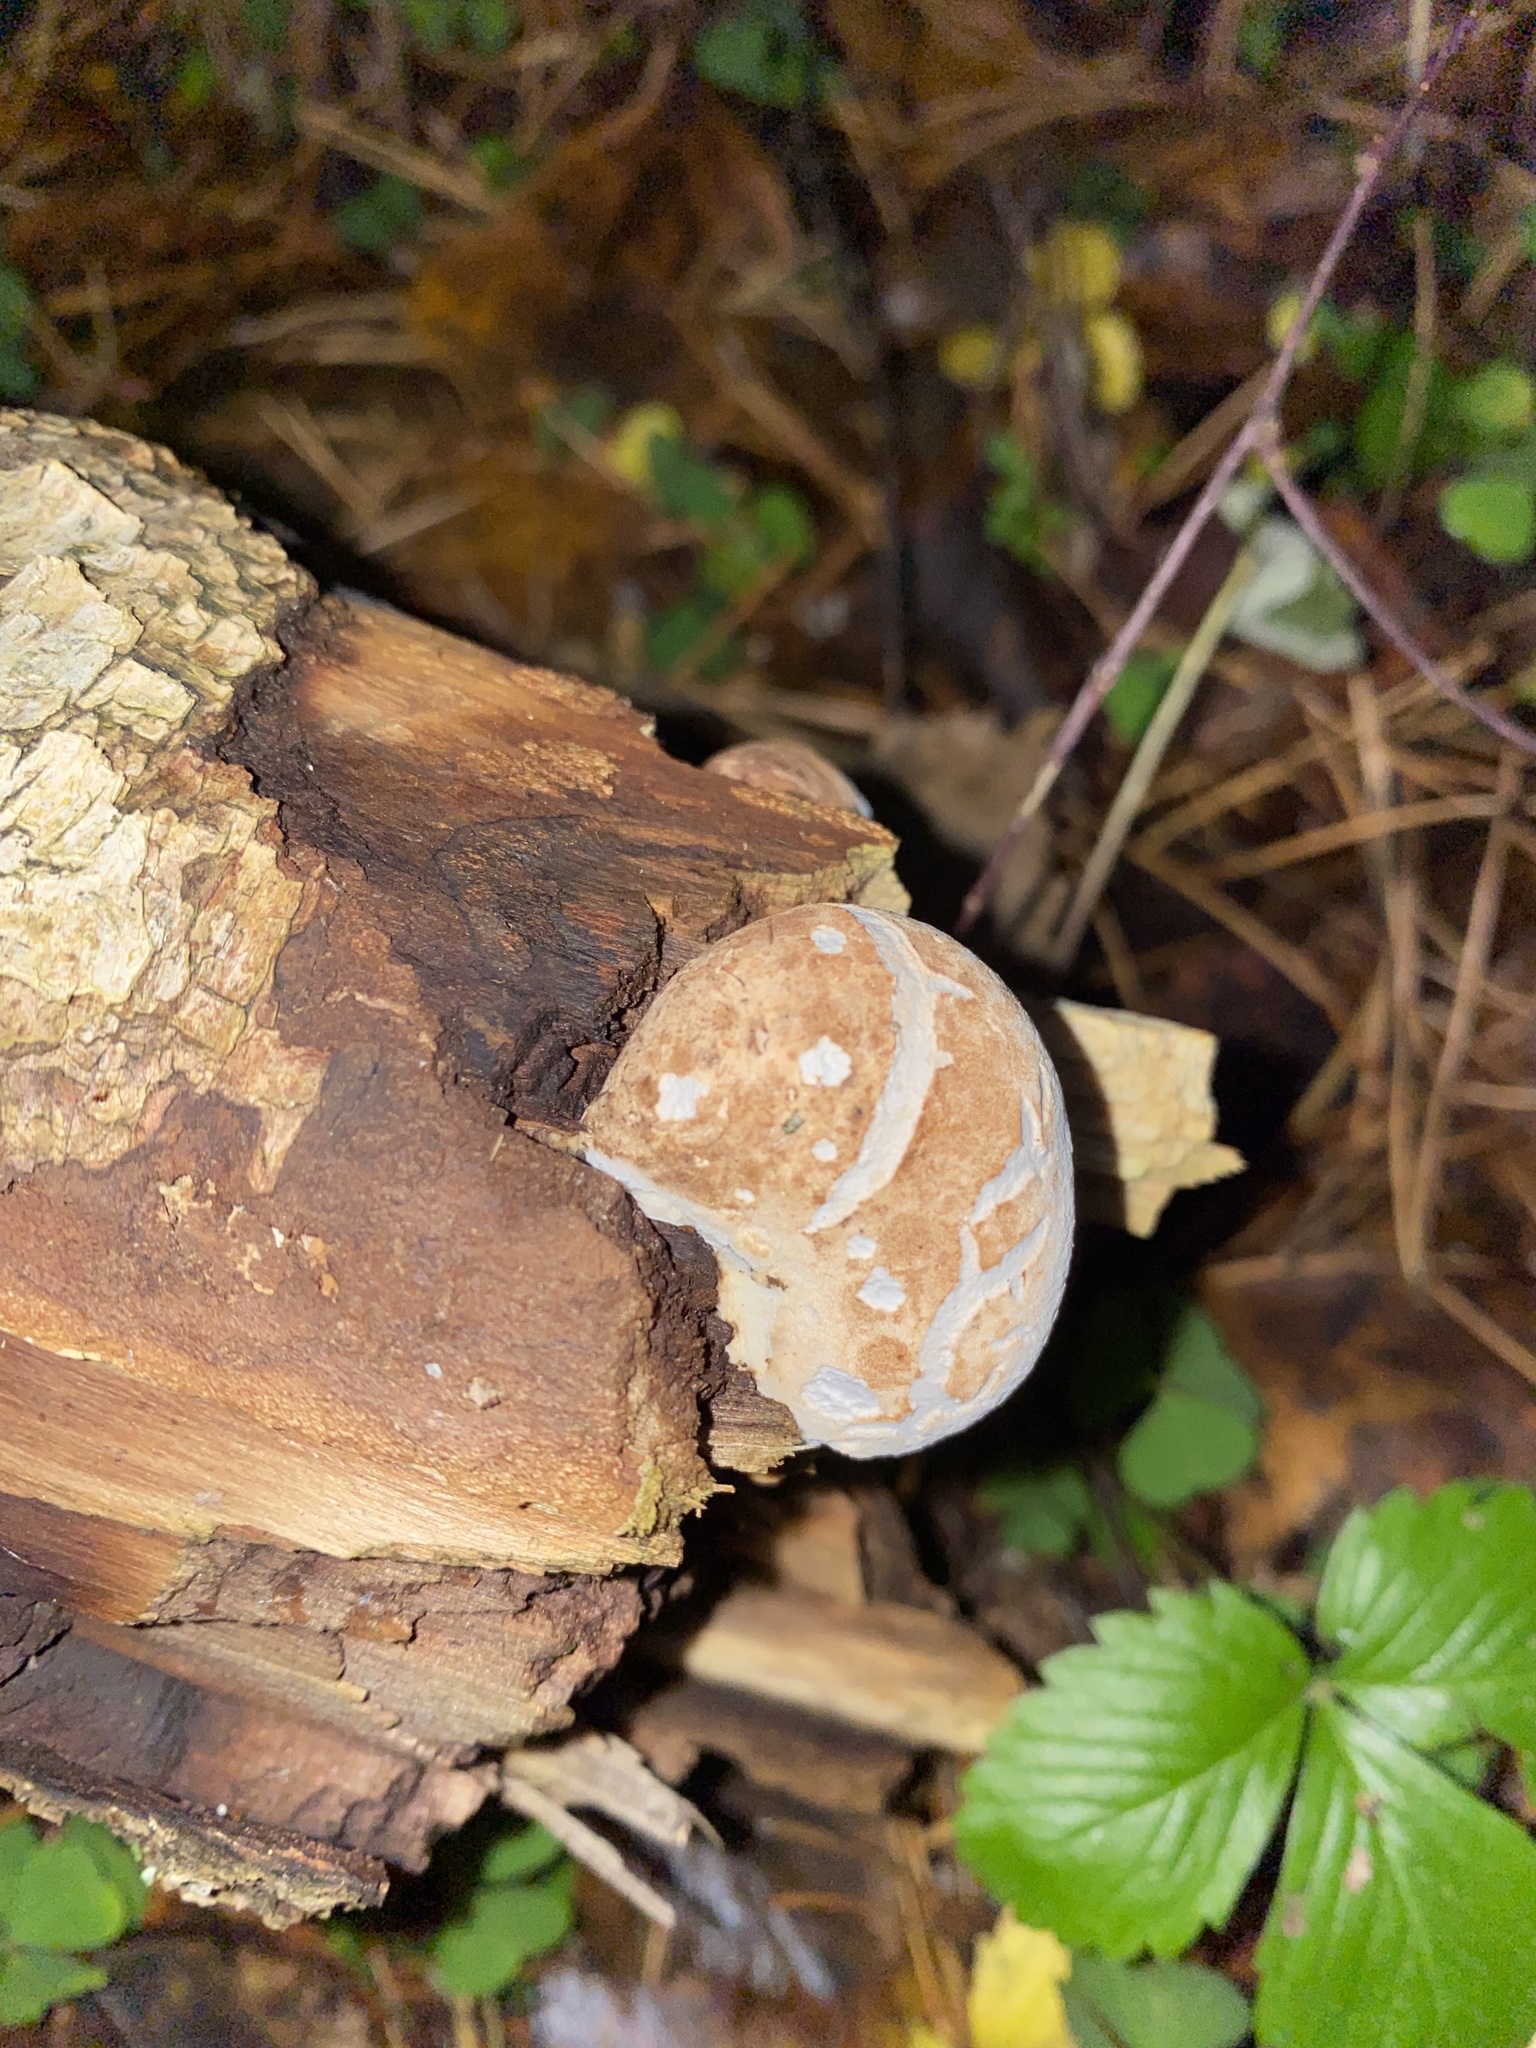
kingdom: Fungi
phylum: Basidiomycota
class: Agaricomycetes
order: Polyporales
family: Fomitopsidaceae
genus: Fomitopsis
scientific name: Fomitopsis betulina
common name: Birch polypore
